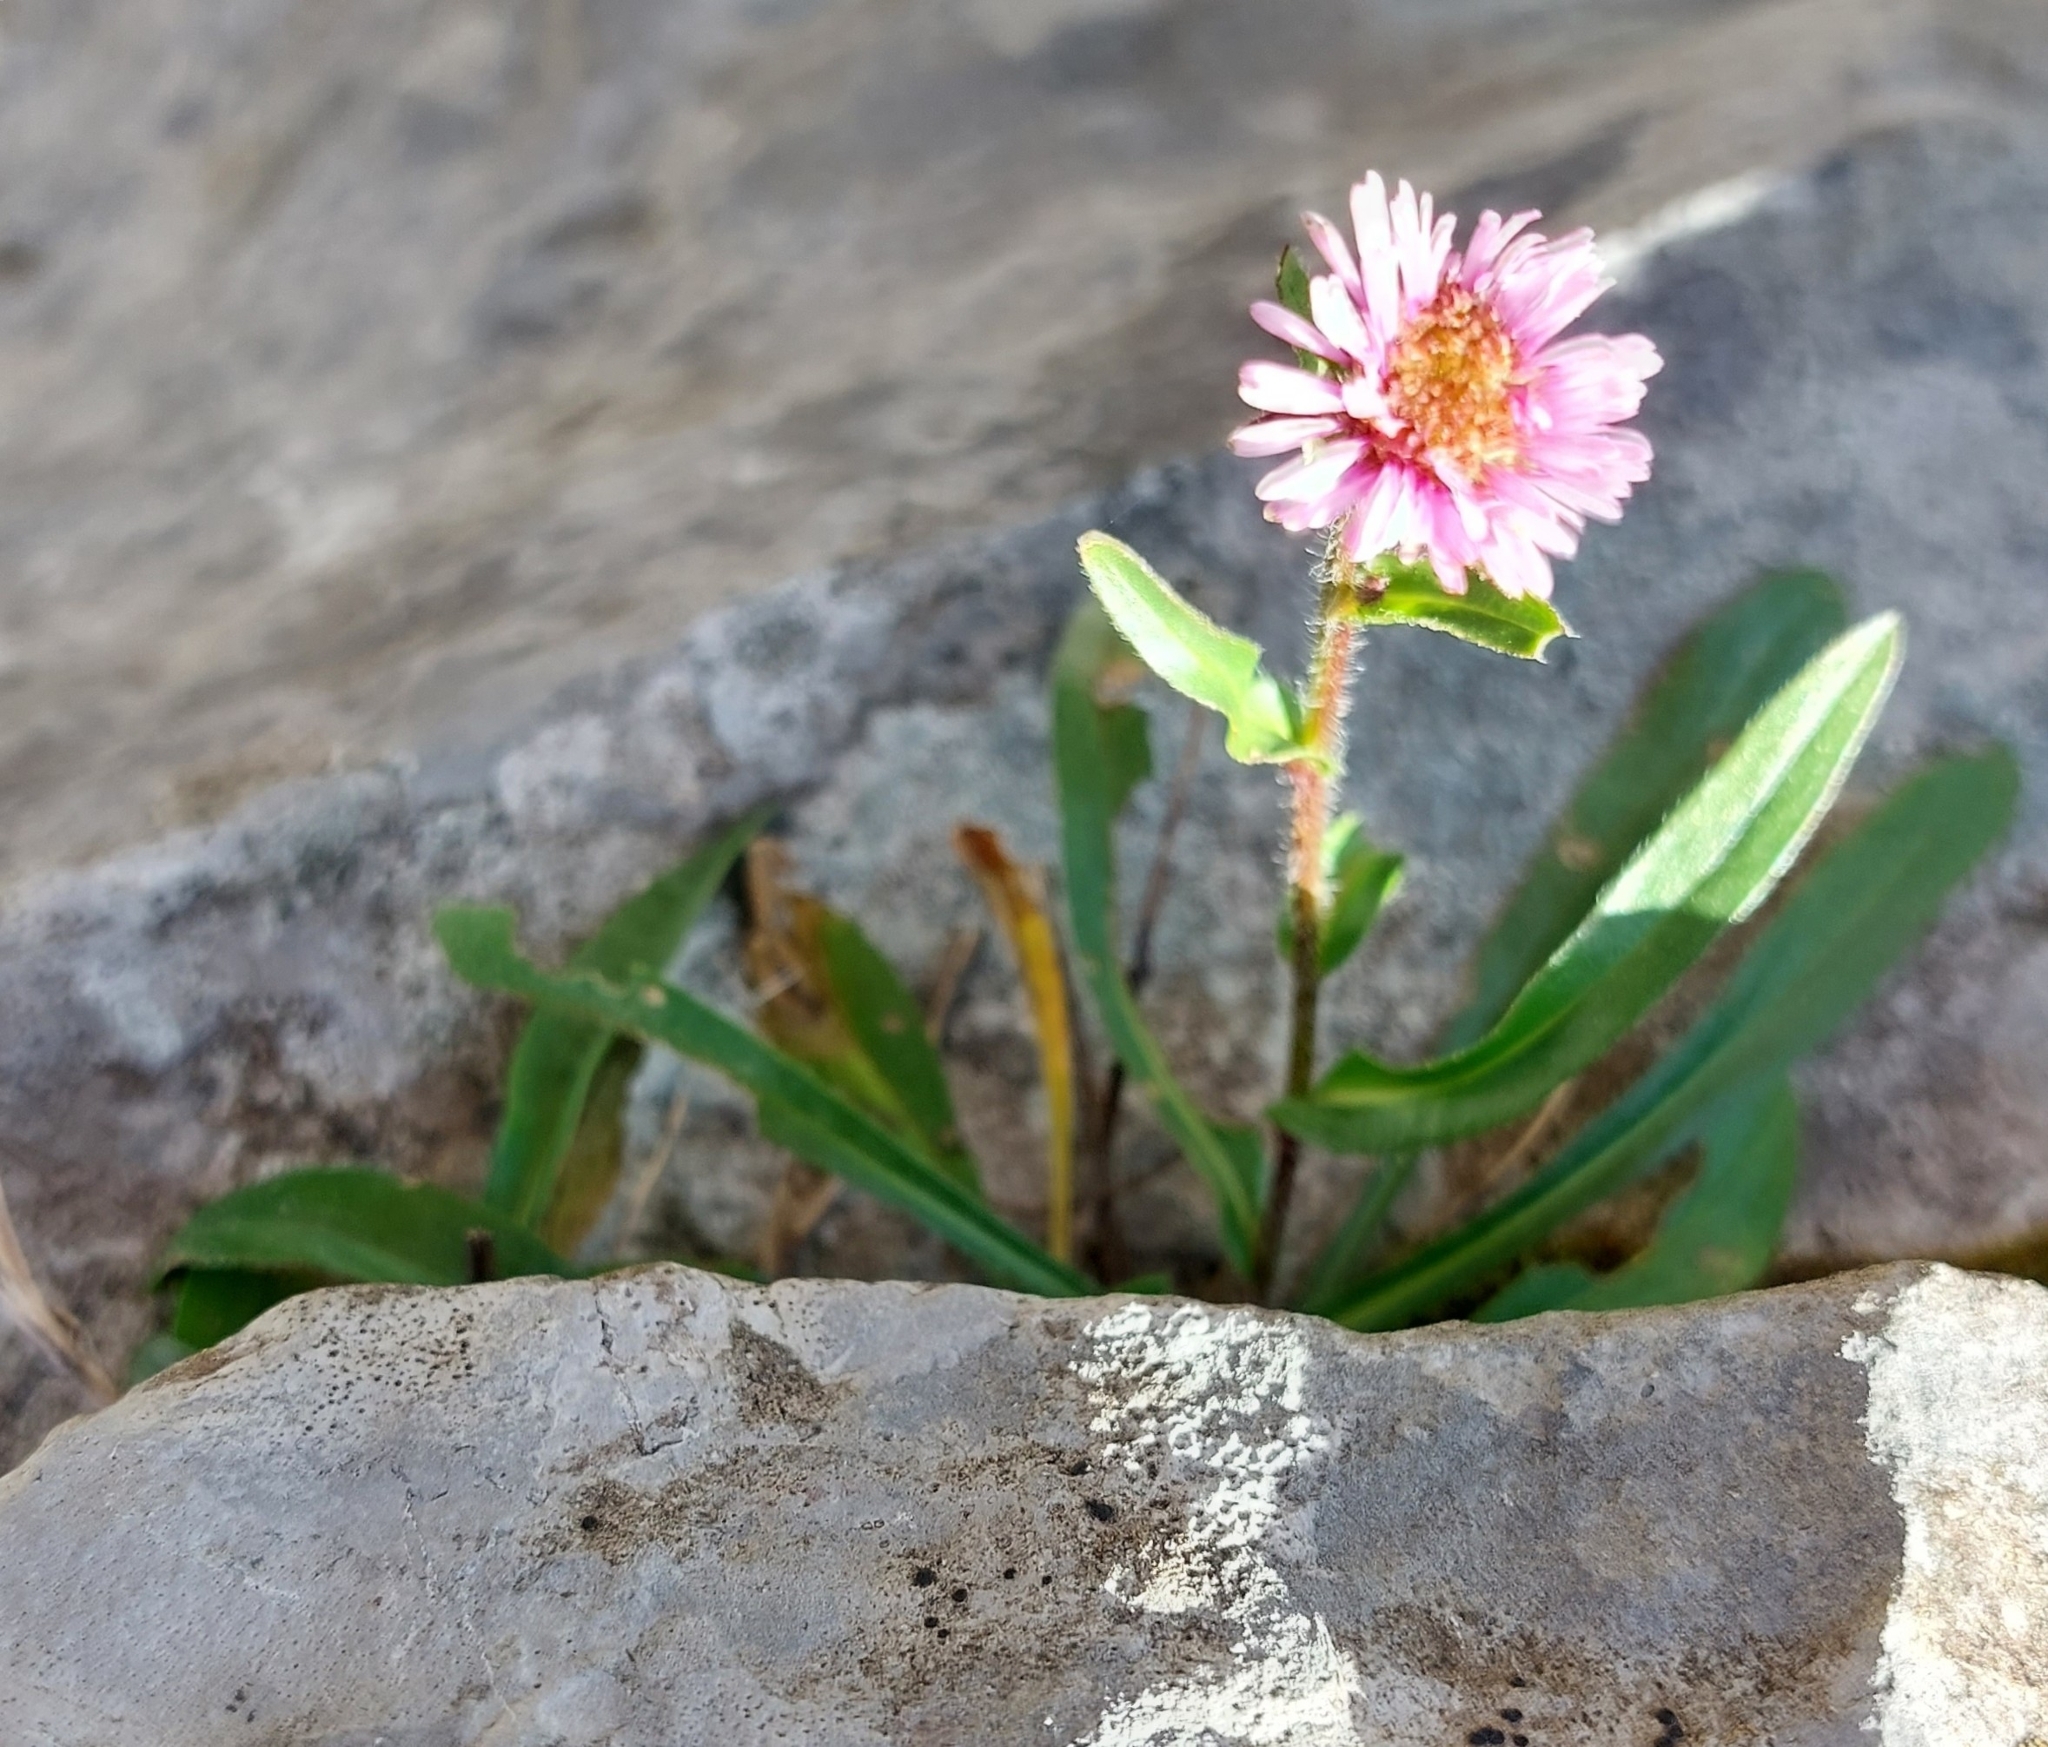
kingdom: Plantae
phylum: Tracheophyta
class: Magnoliopsida
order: Asterales
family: Asteraceae
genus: Erigeron
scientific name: Erigeron alpinus
